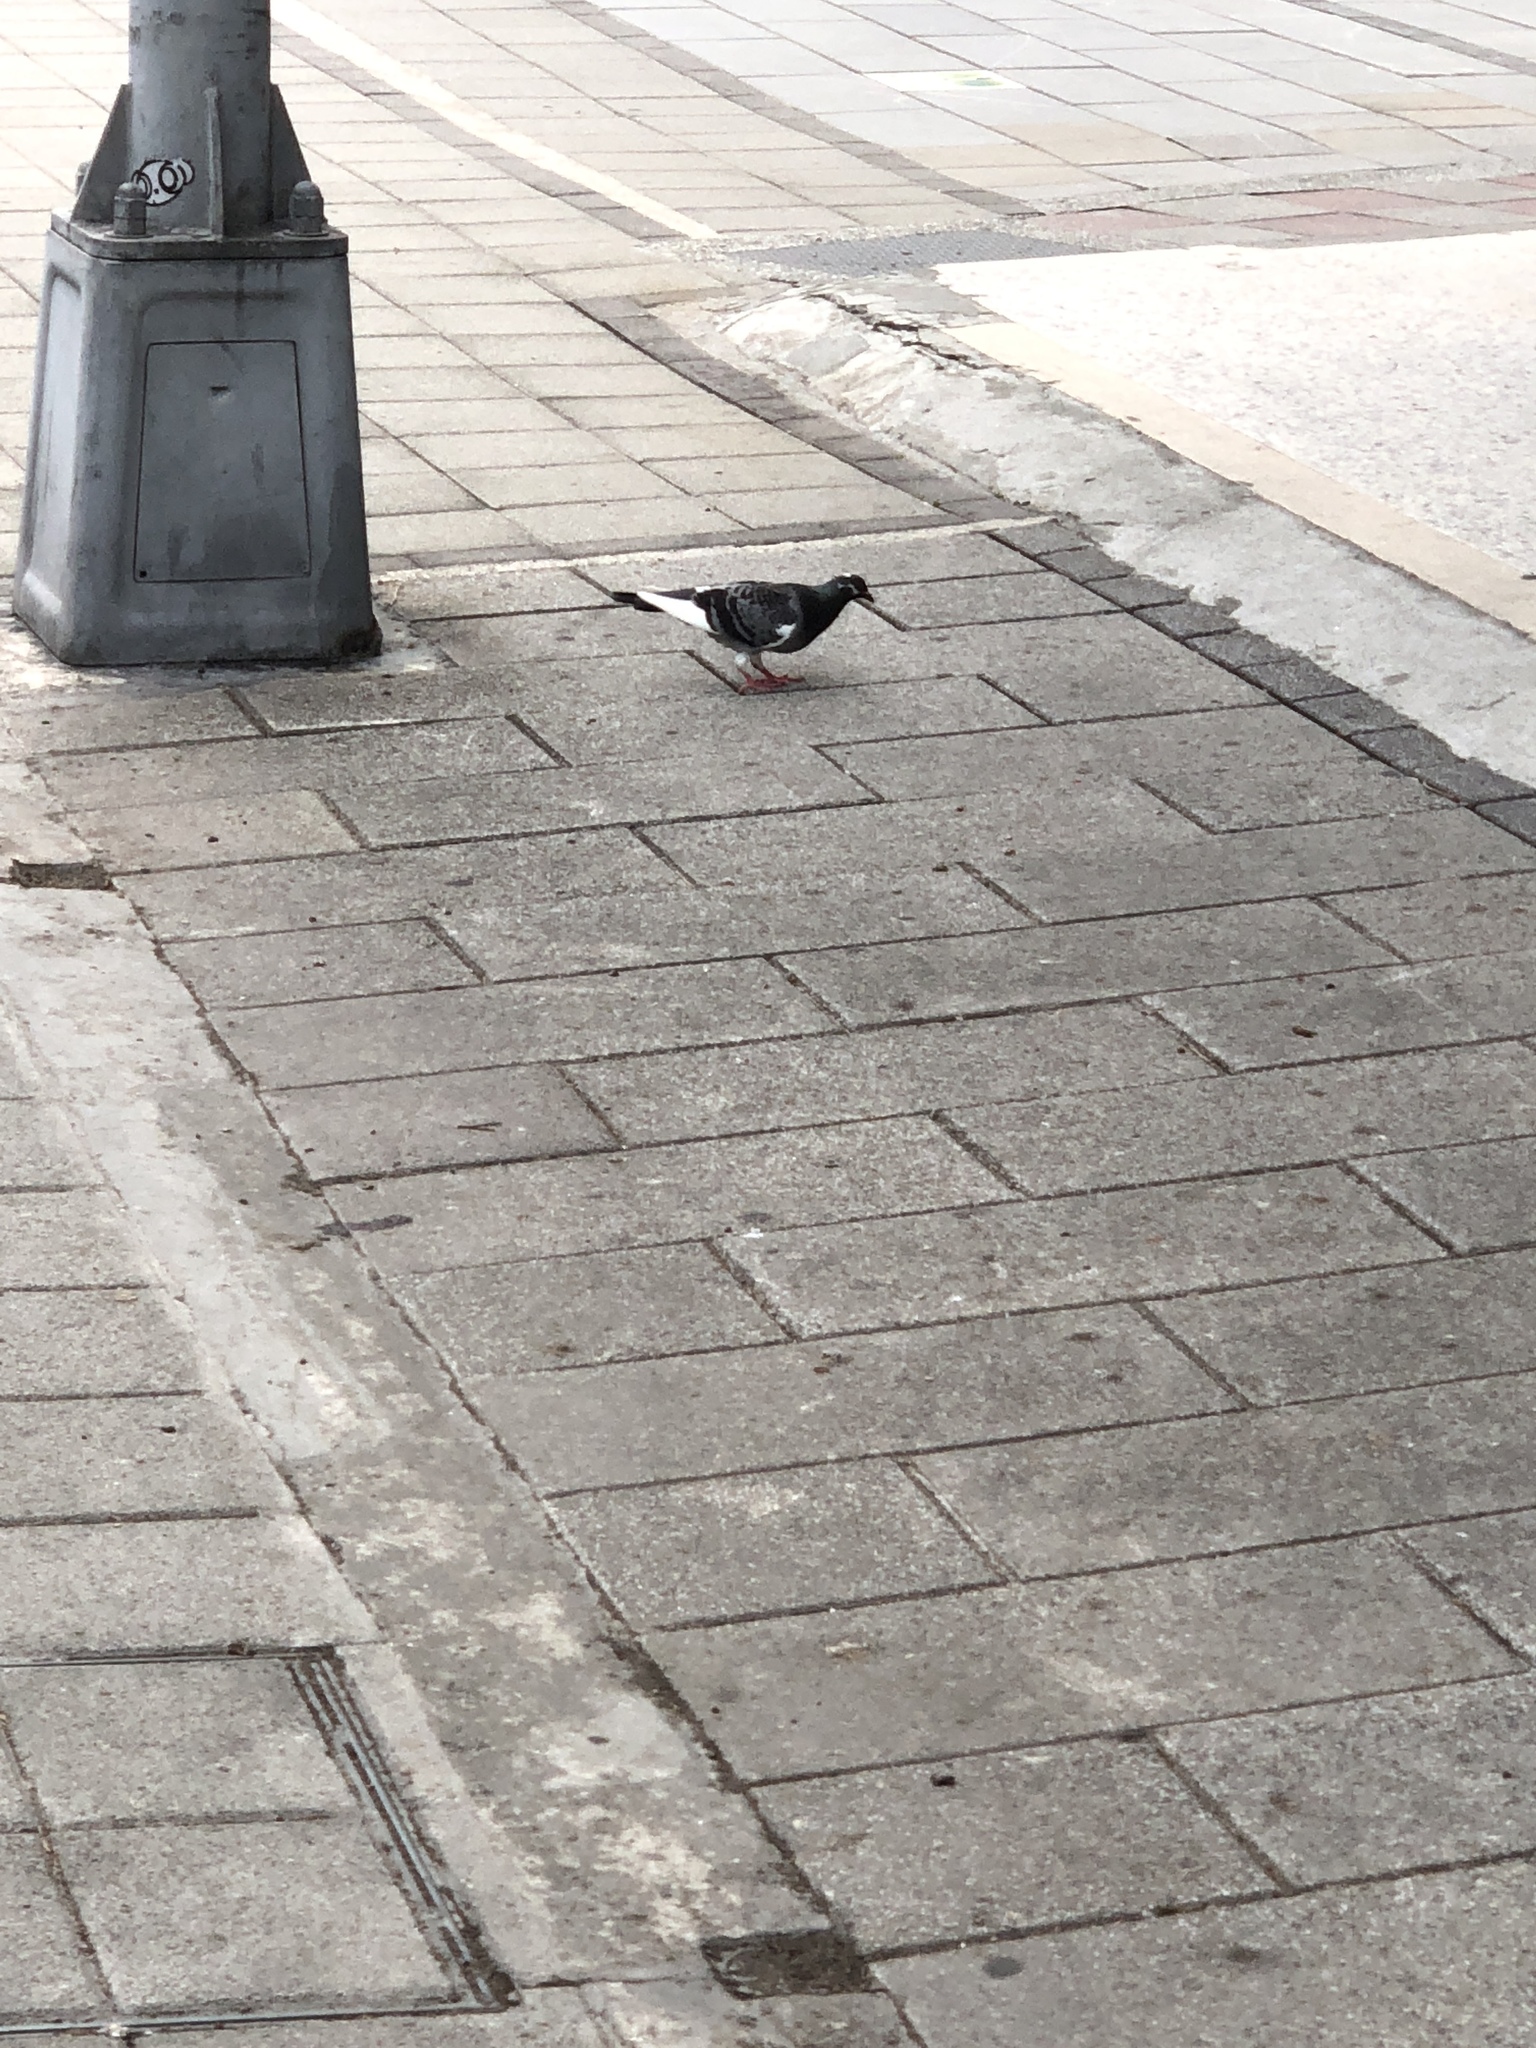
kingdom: Animalia
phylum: Chordata
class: Aves
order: Columbiformes
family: Columbidae
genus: Columba
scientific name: Columba livia
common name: Rock pigeon
